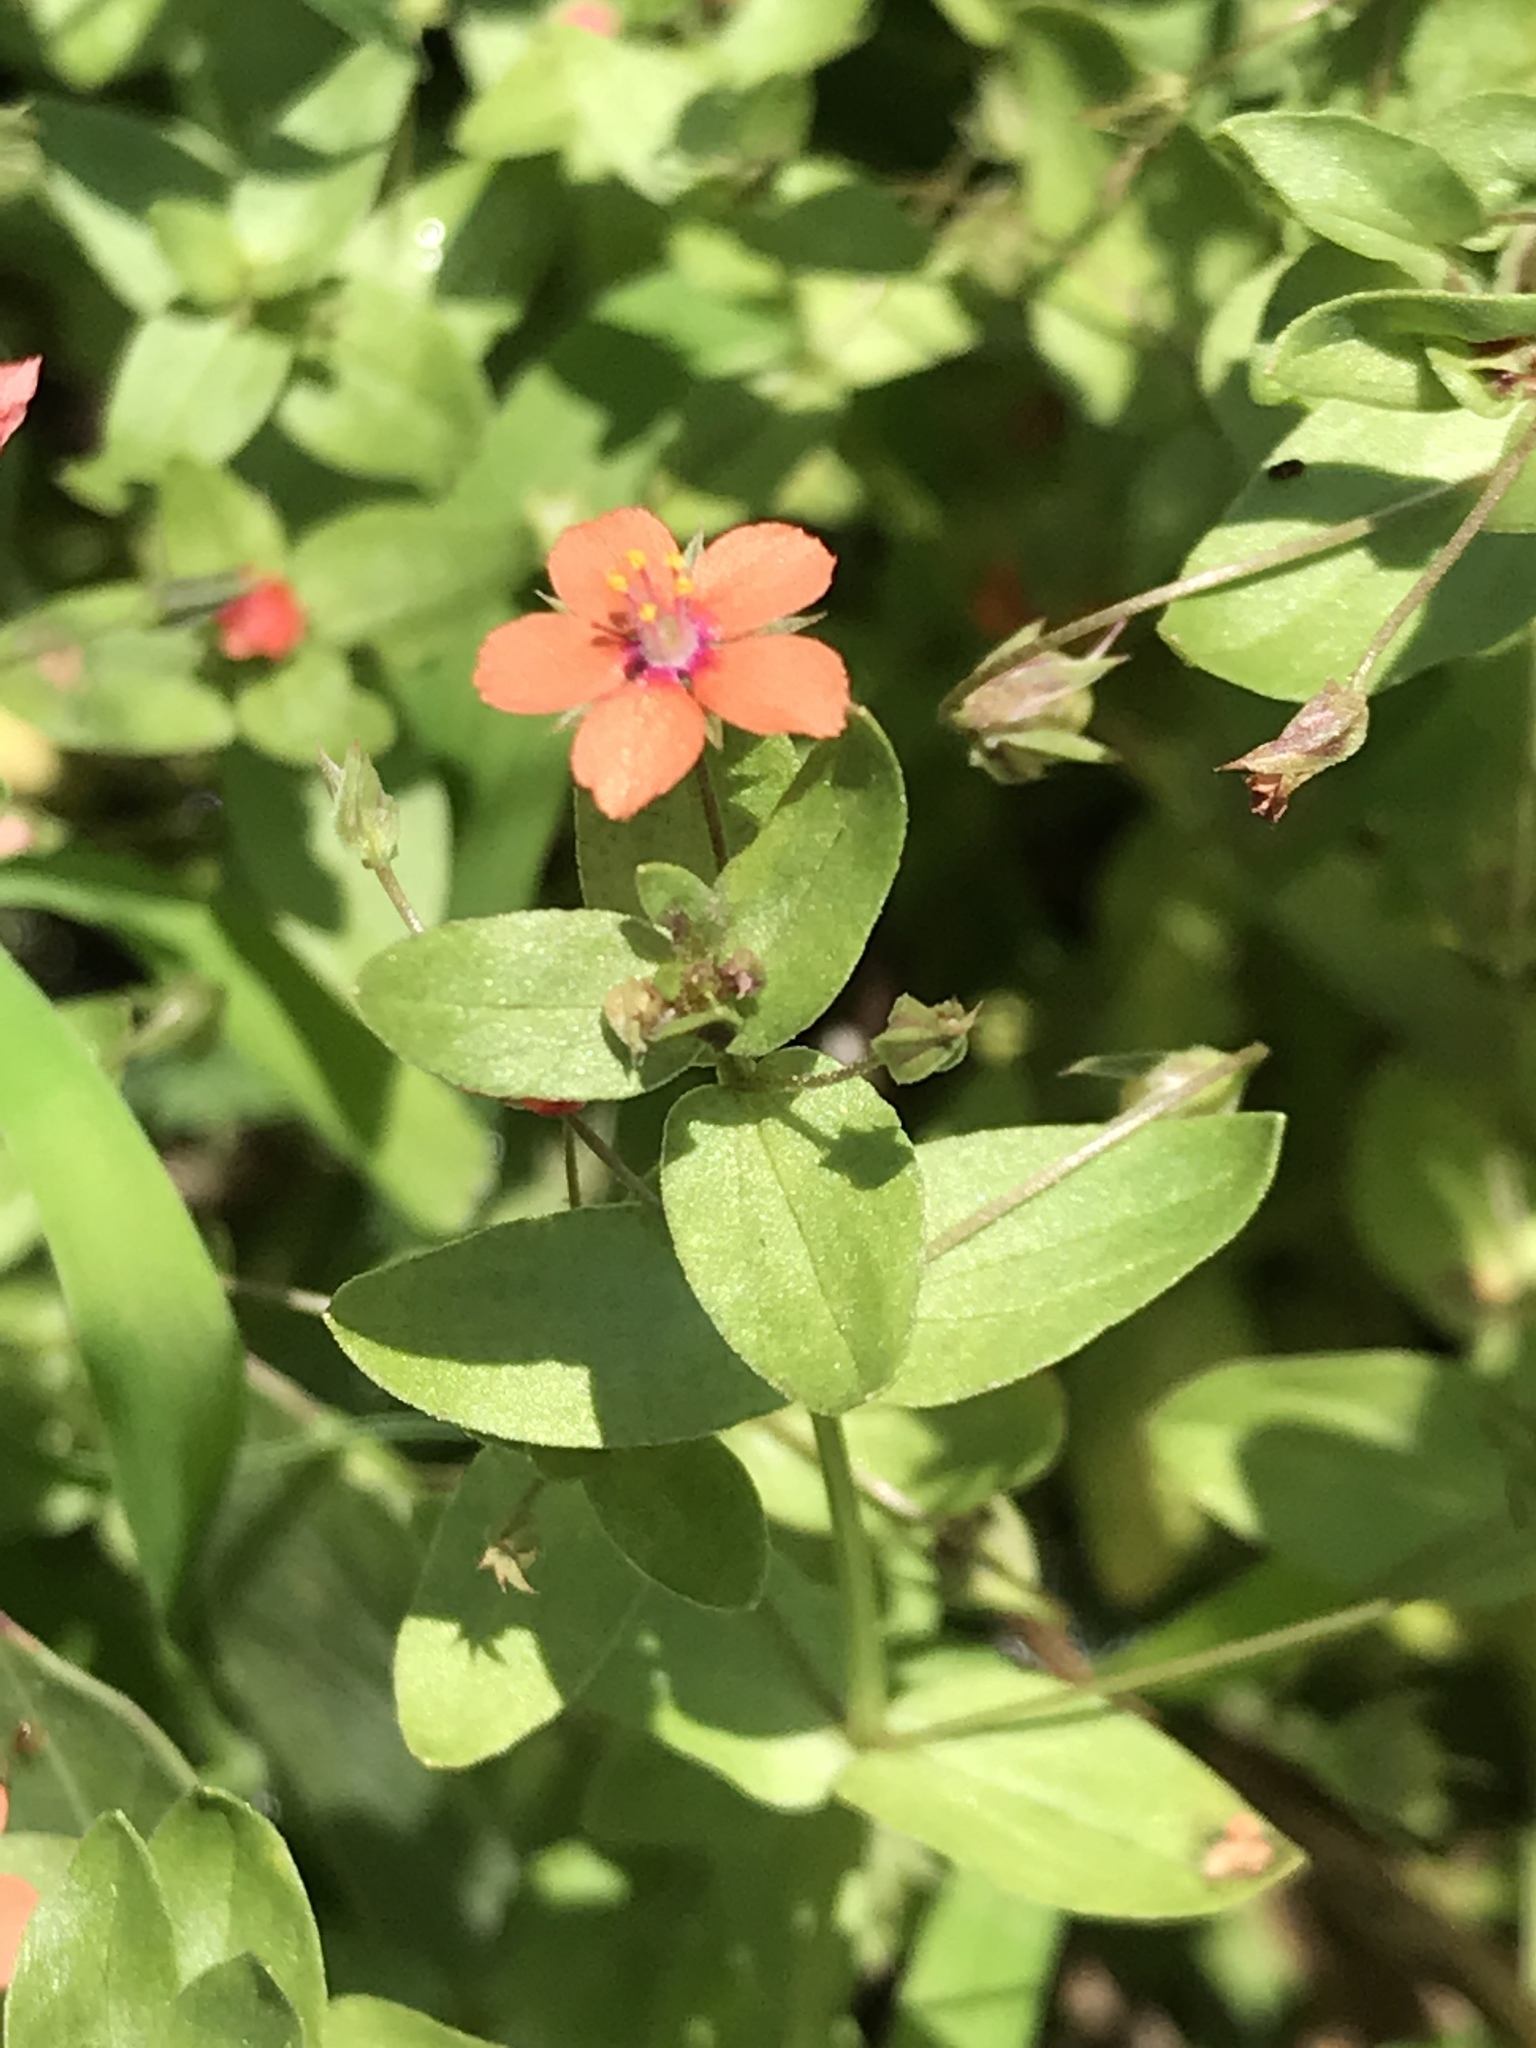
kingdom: Plantae
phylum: Tracheophyta
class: Magnoliopsida
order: Ericales
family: Primulaceae
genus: Lysimachia
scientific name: Lysimachia arvensis
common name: Scarlet pimpernel
